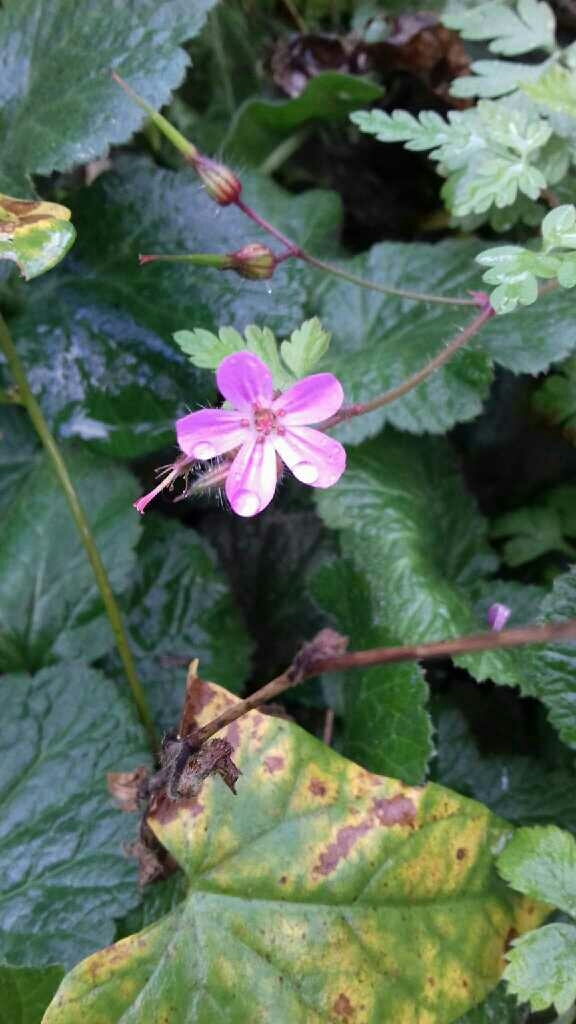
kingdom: Plantae
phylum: Tracheophyta
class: Magnoliopsida
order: Geraniales
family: Geraniaceae
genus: Geranium
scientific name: Geranium robertianum
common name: Herb-robert
